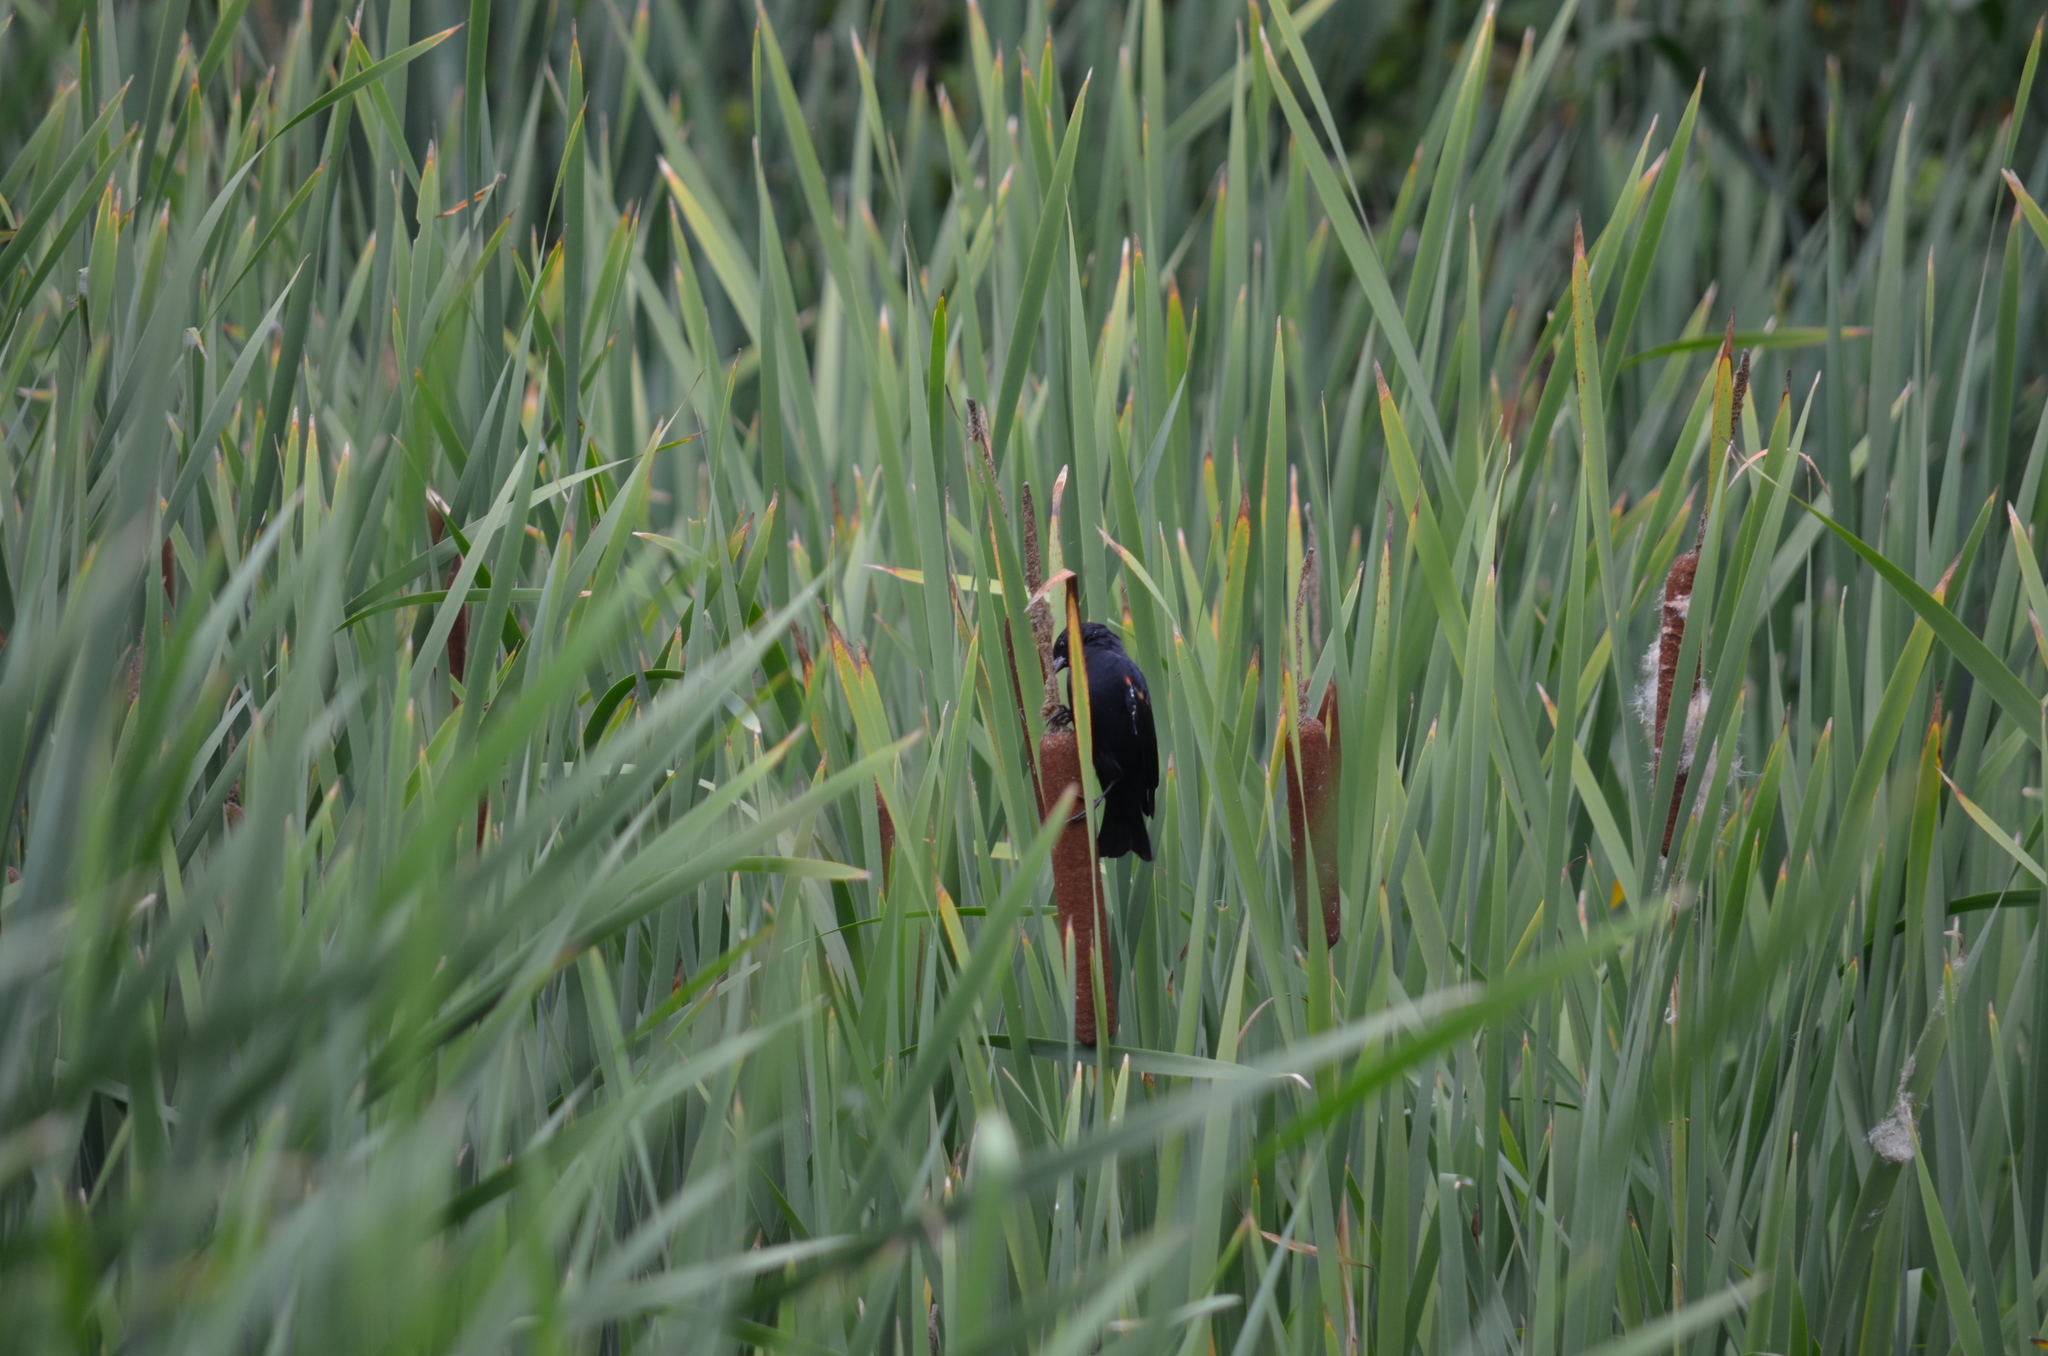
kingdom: Animalia
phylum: Chordata
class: Aves
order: Passeriformes
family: Icteridae
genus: Agelaius
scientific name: Agelaius phoeniceus
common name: Red-winged blackbird
